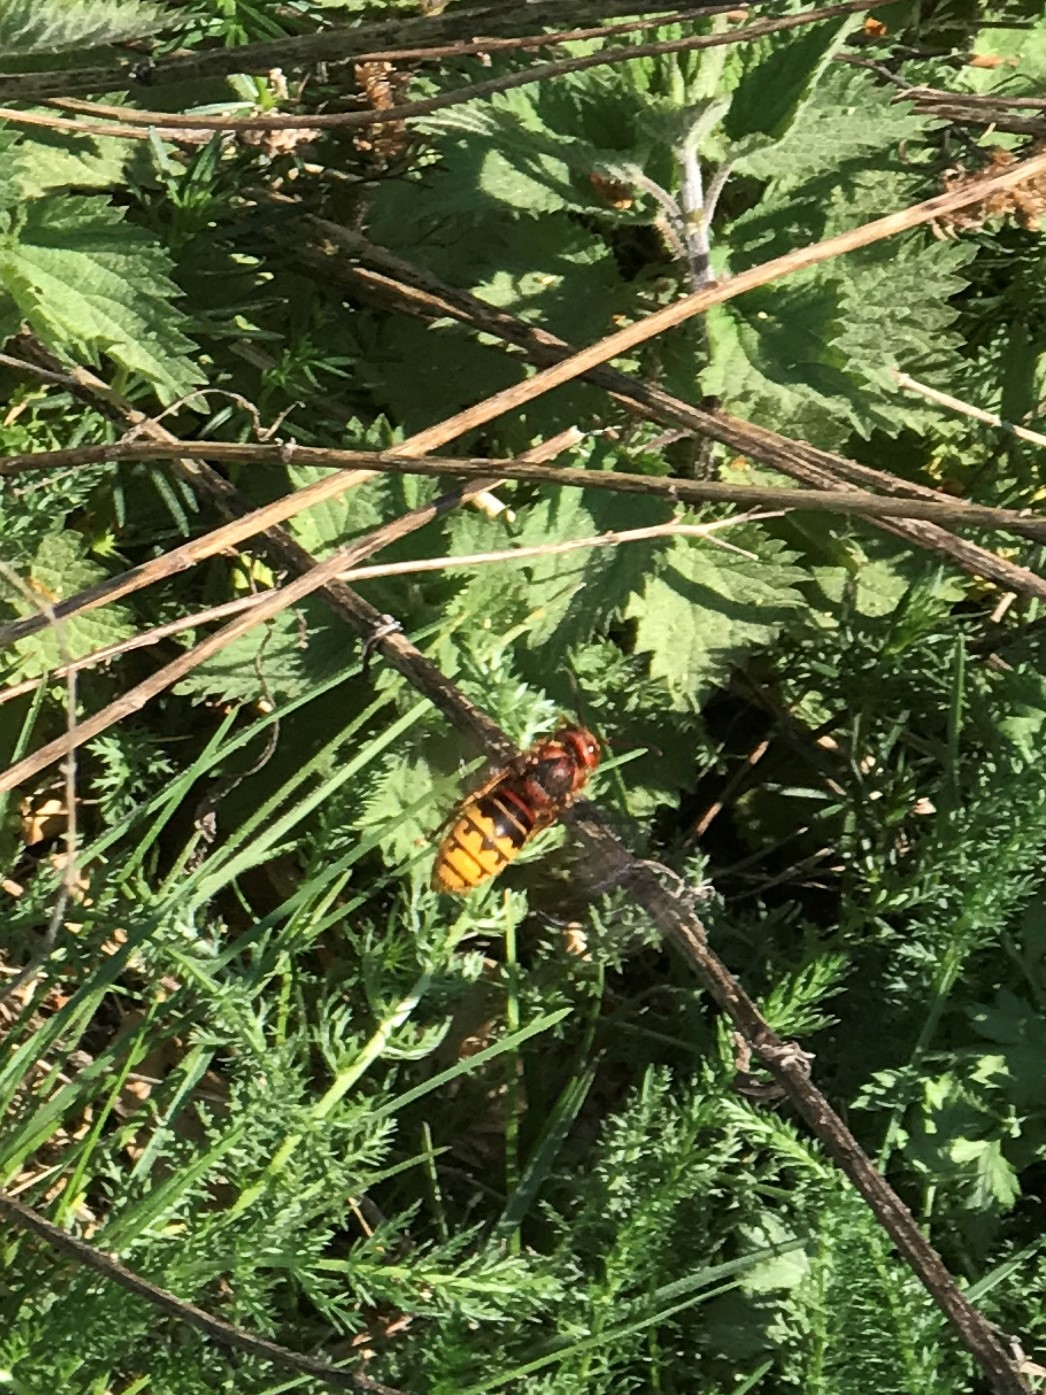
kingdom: Animalia
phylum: Arthropoda
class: Insecta
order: Hymenoptera
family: Vespidae
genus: Vespa
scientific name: Vespa crabro
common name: Hornet
